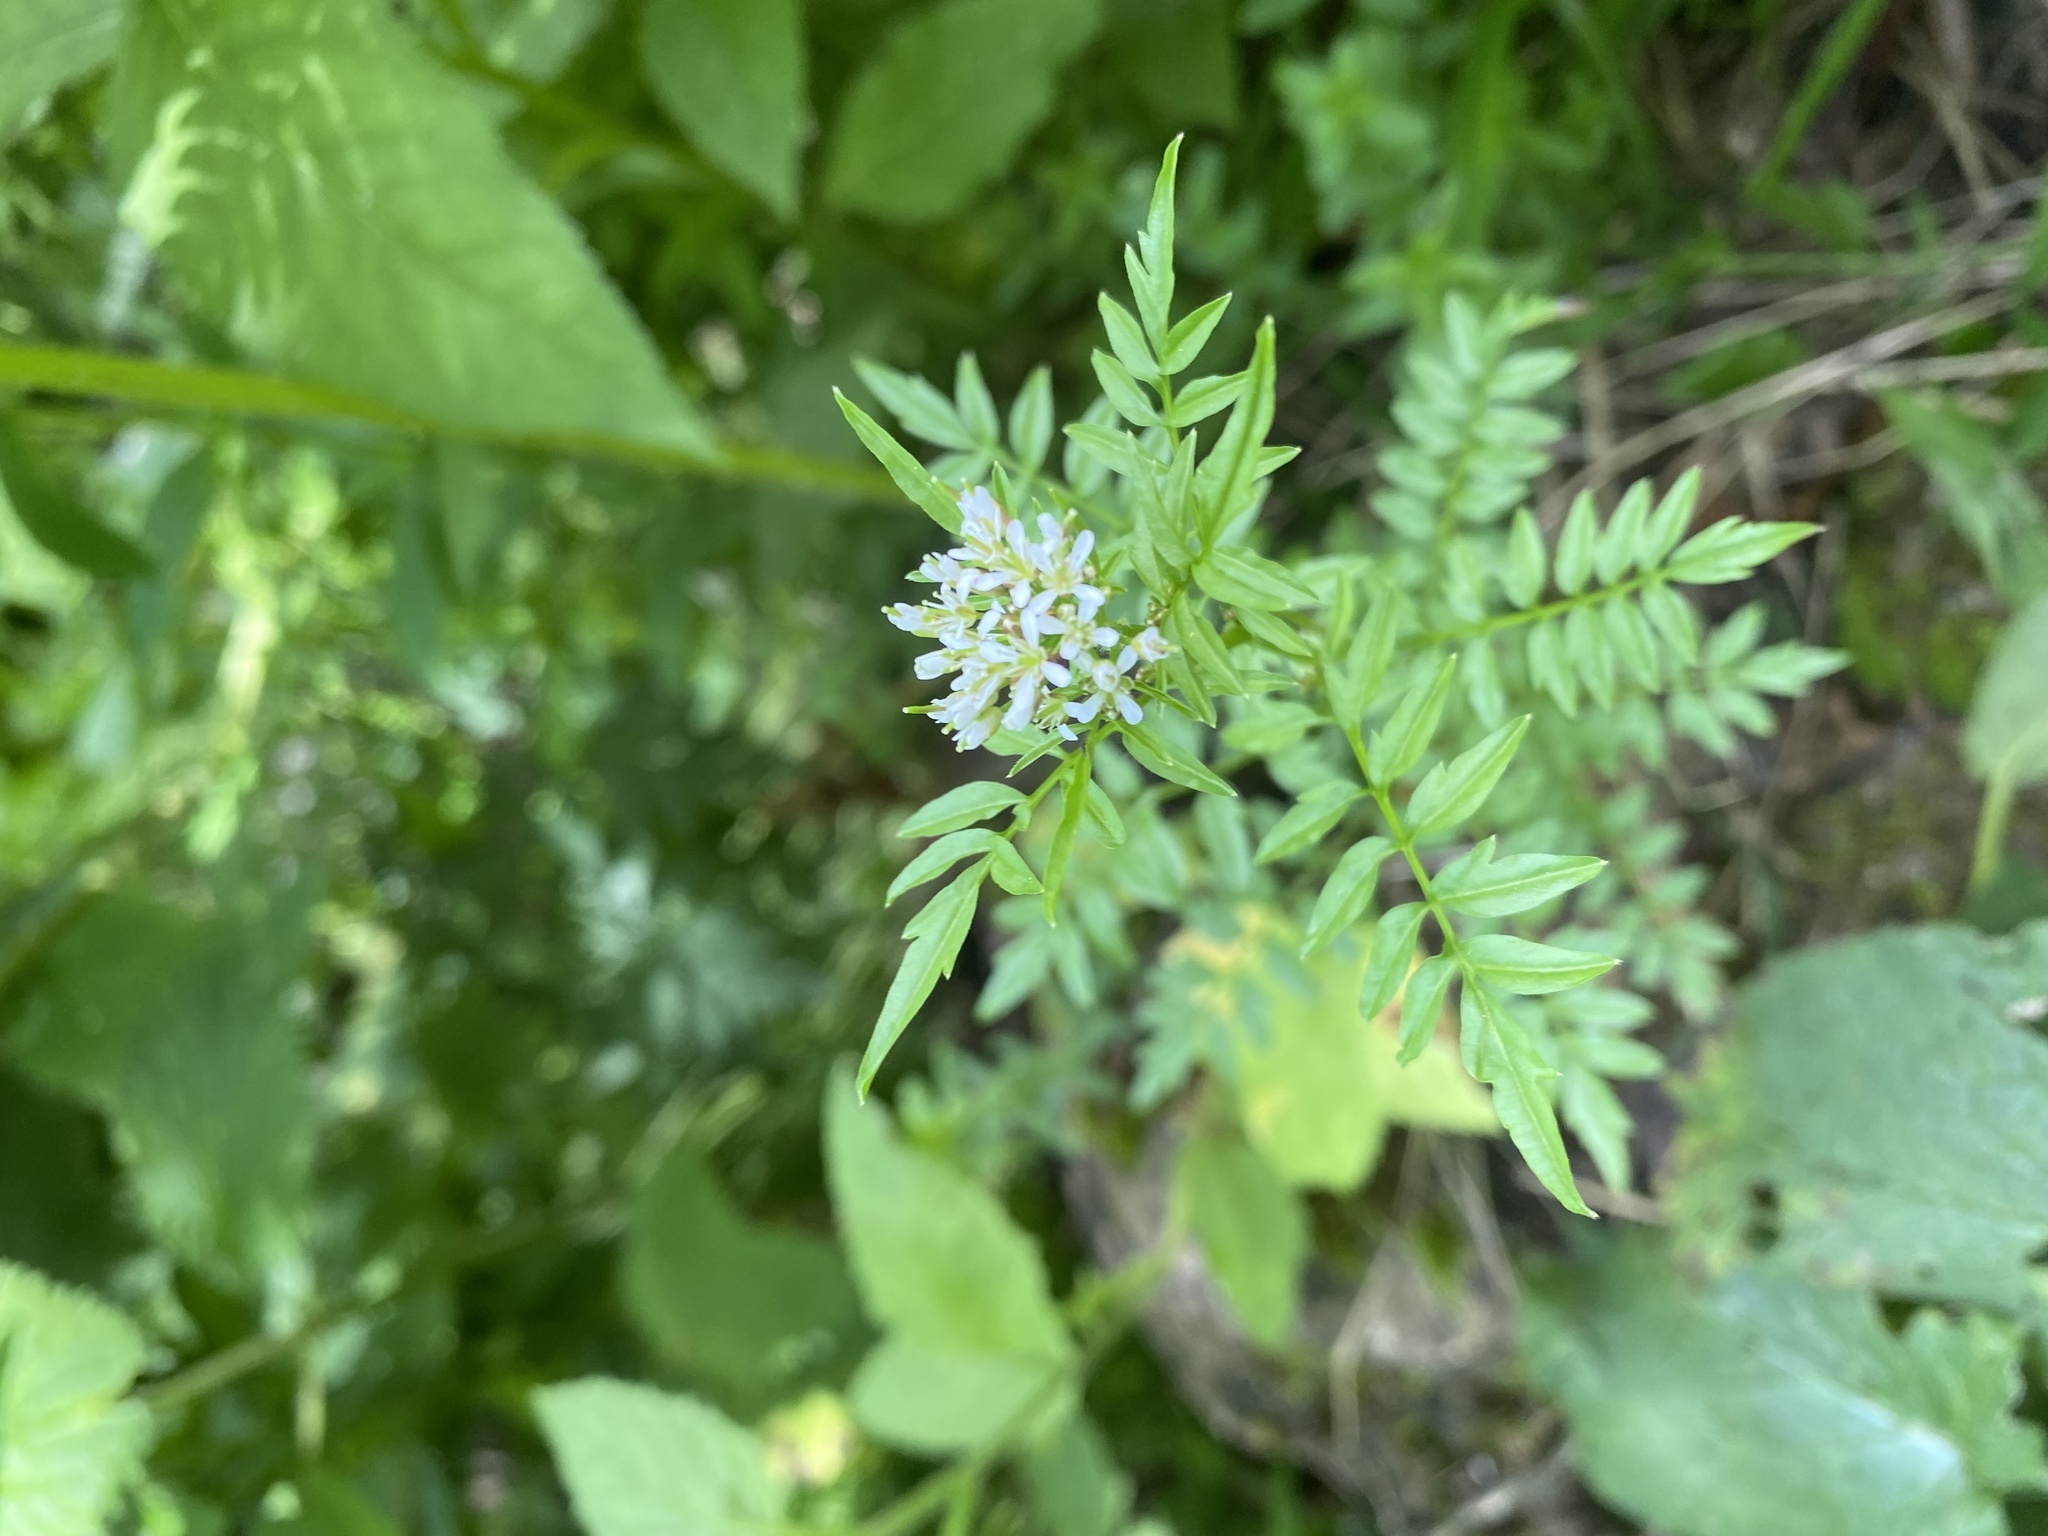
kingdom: Plantae
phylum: Tracheophyta
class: Magnoliopsida
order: Brassicales
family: Brassicaceae
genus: Cardamine
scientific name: Cardamine impatiens
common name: Narrow-leaved bitter-cress
